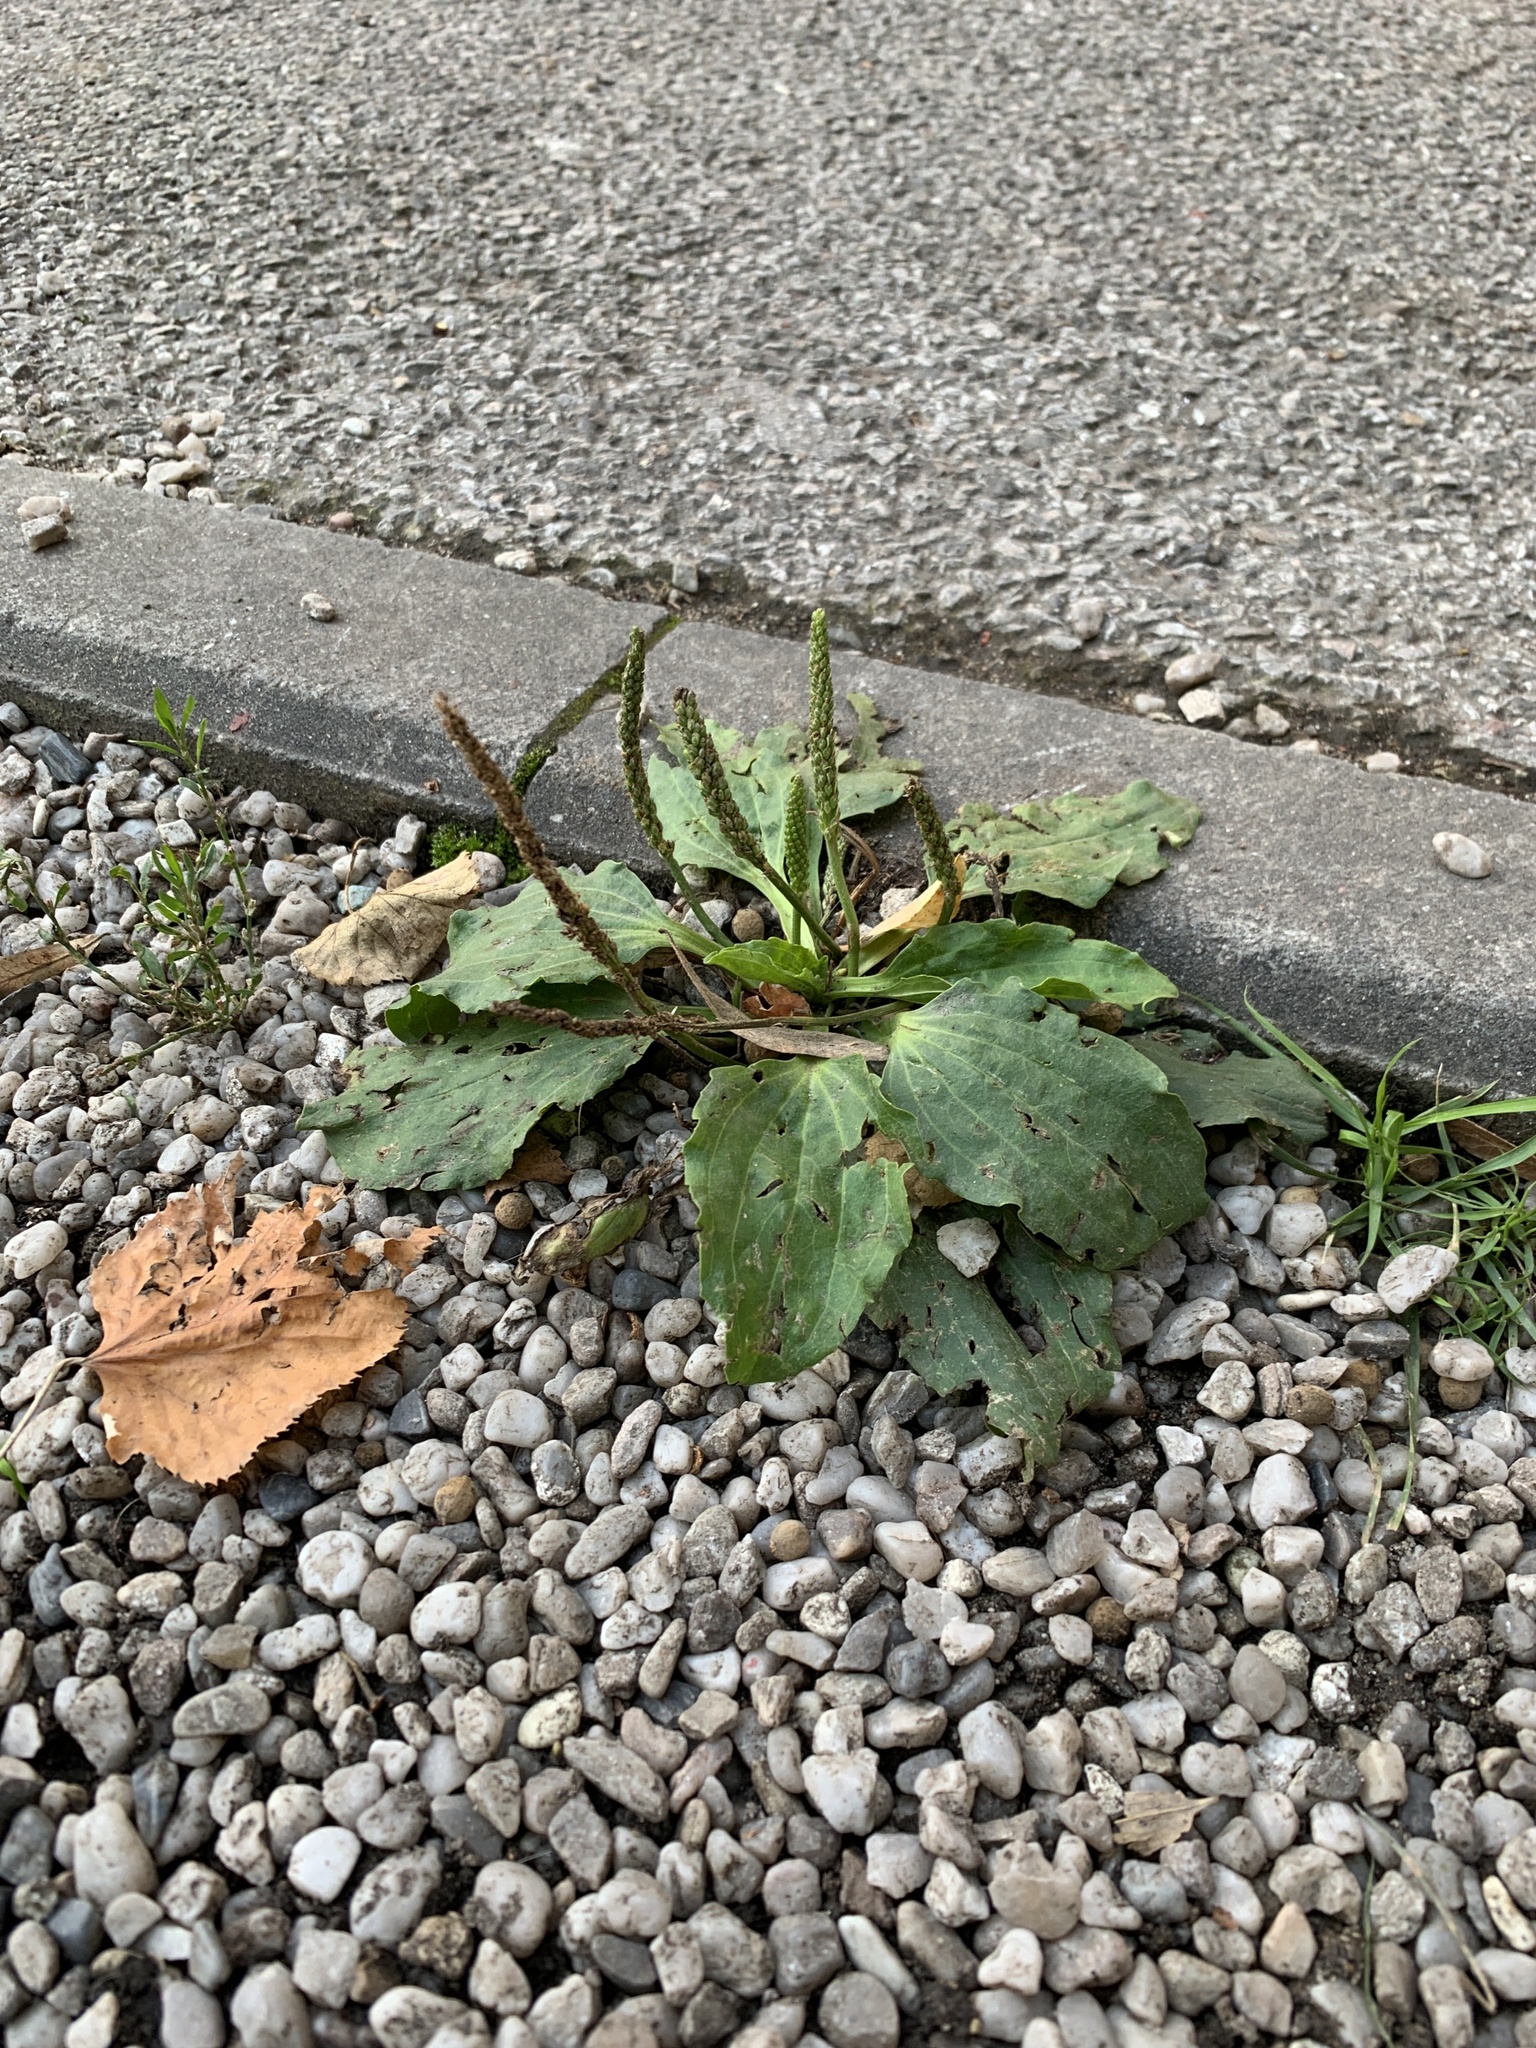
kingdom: Plantae
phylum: Tracheophyta
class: Magnoliopsida
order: Lamiales
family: Plantaginaceae
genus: Plantago
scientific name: Plantago major
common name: Common plantain
